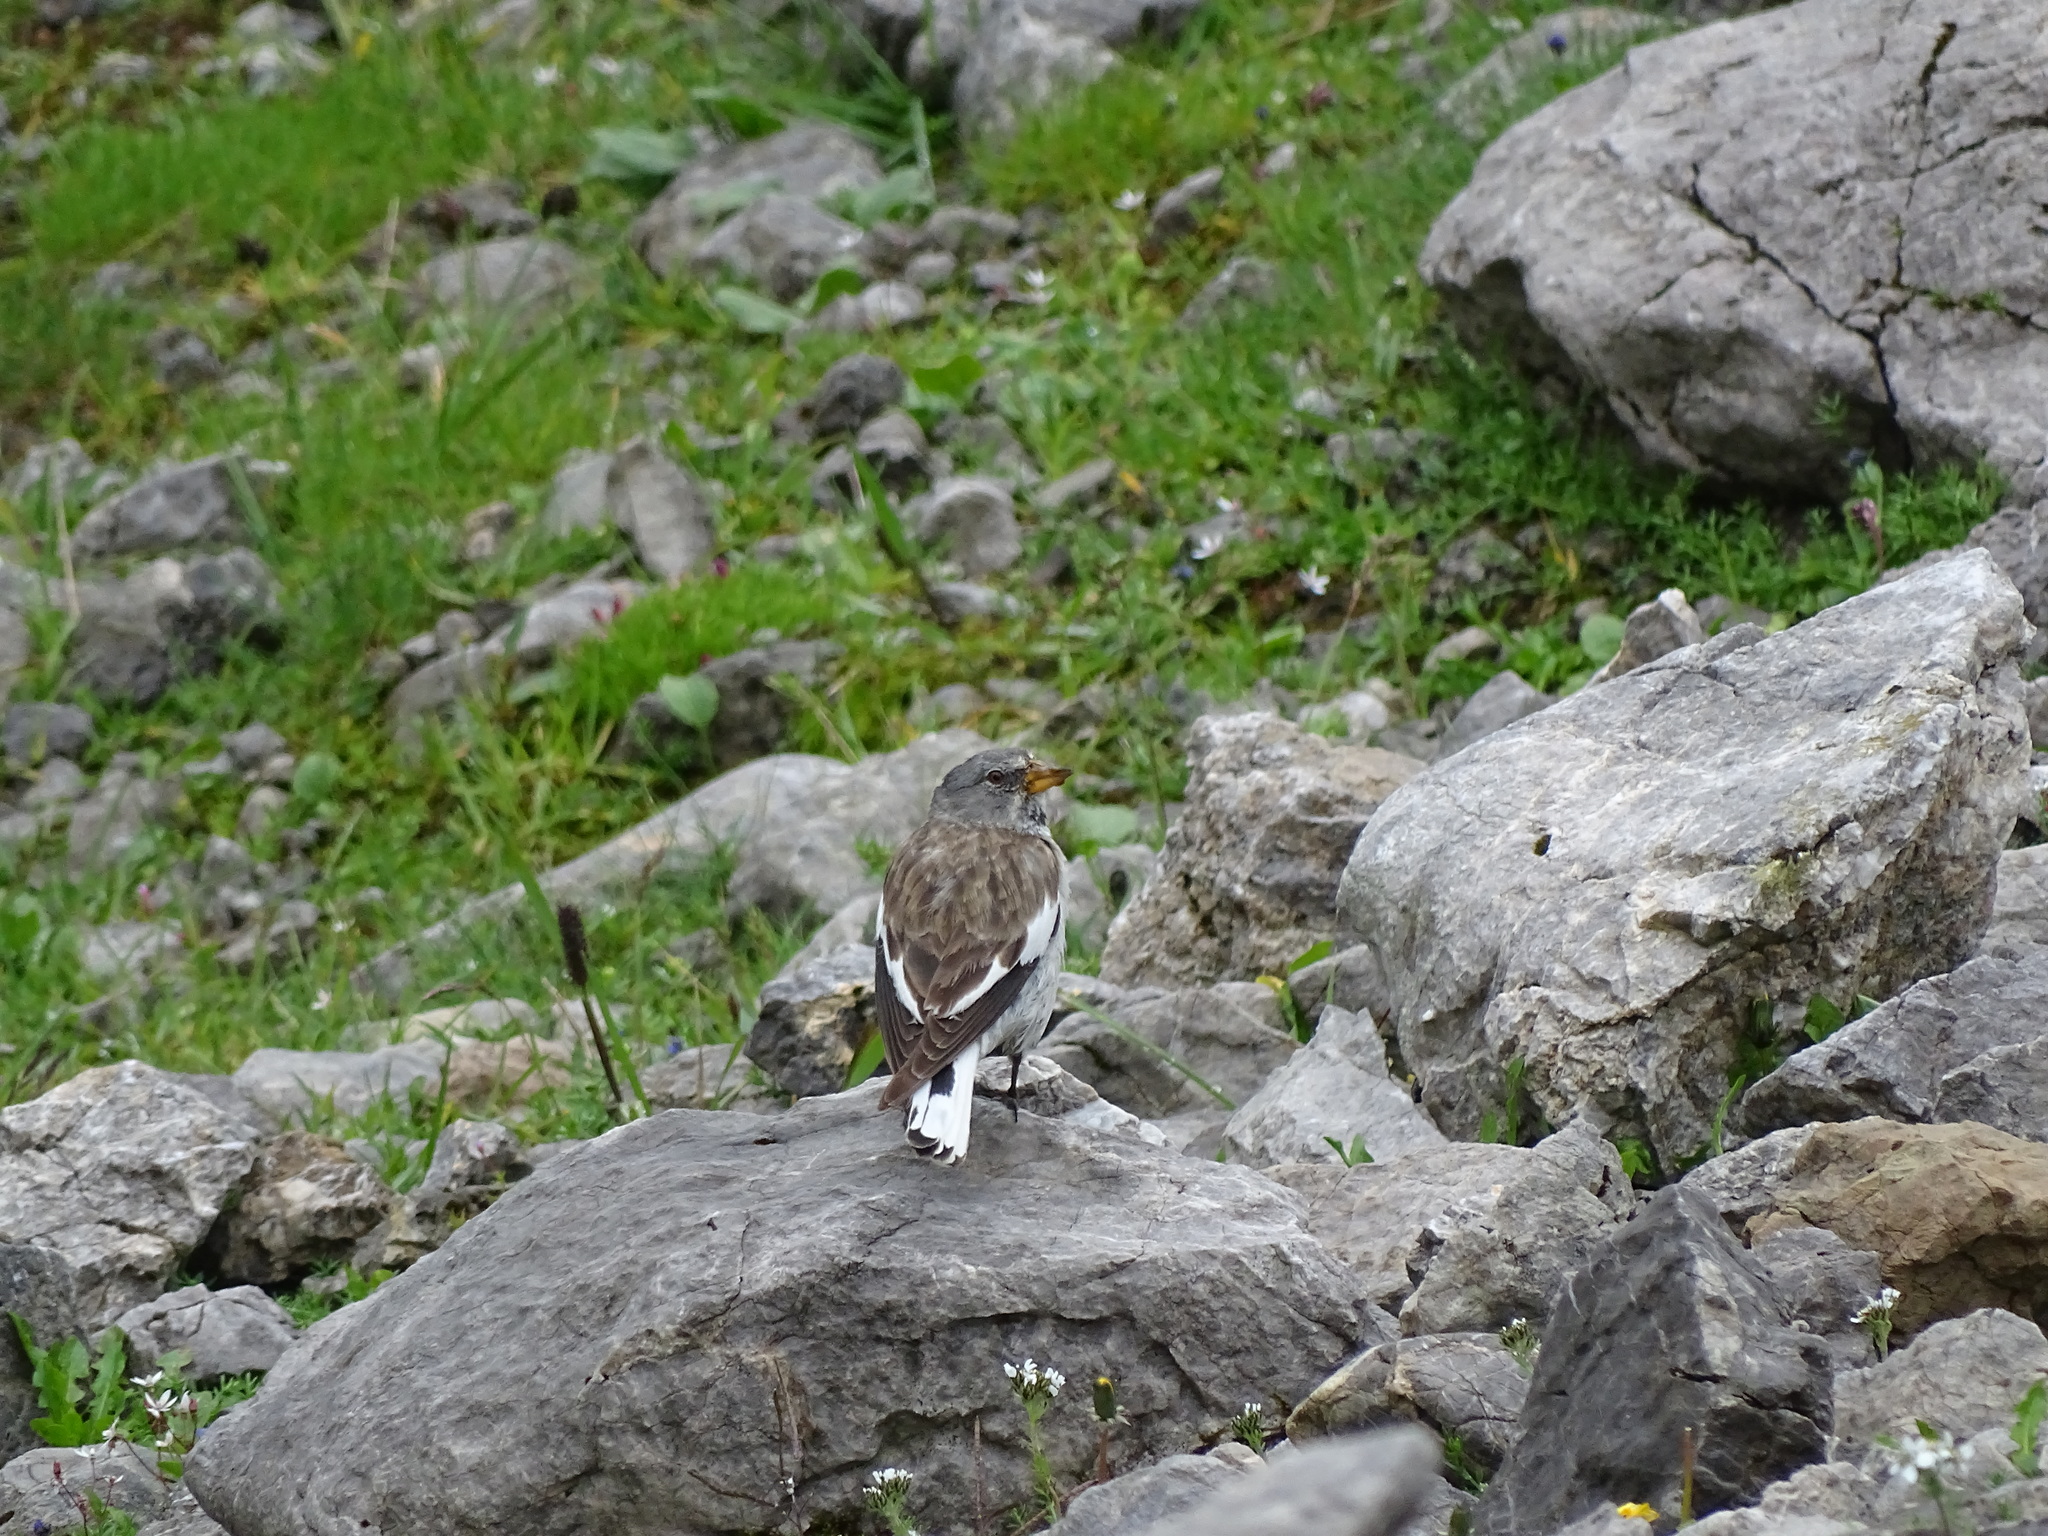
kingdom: Animalia
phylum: Chordata
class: Aves
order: Passeriformes
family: Passeridae
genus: Montifringilla
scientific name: Montifringilla nivalis
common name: White-winged snowfinch
